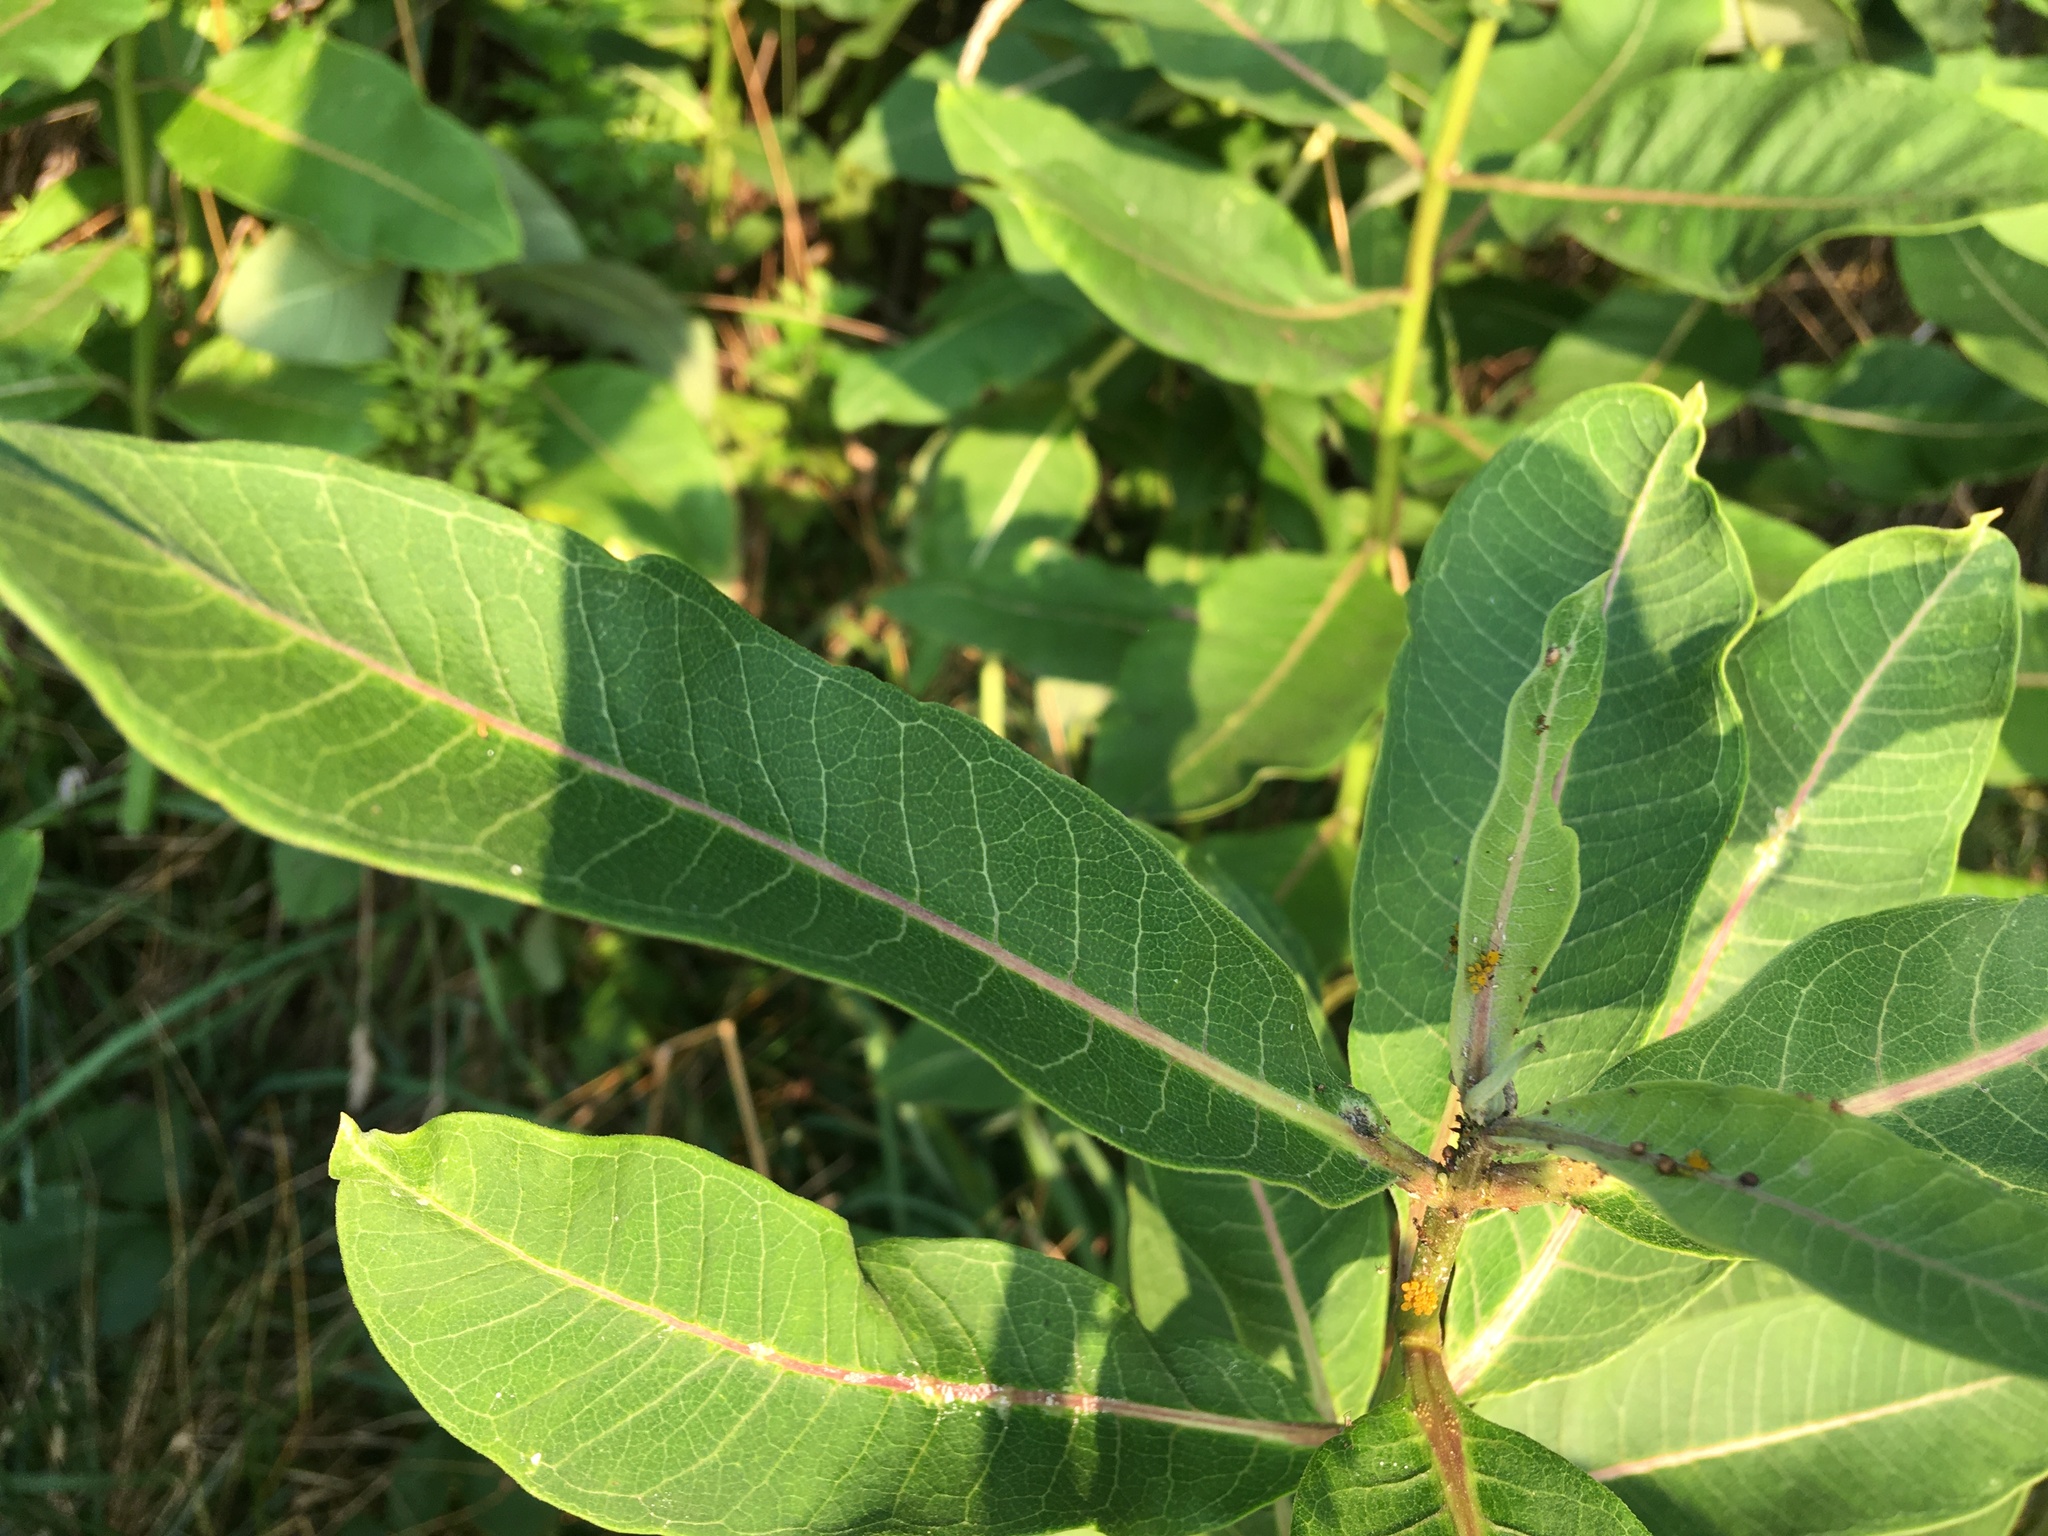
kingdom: Plantae
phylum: Tracheophyta
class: Magnoliopsida
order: Gentianales
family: Apocynaceae
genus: Asclepias
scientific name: Asclepias syriaca
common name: Common milkweed
